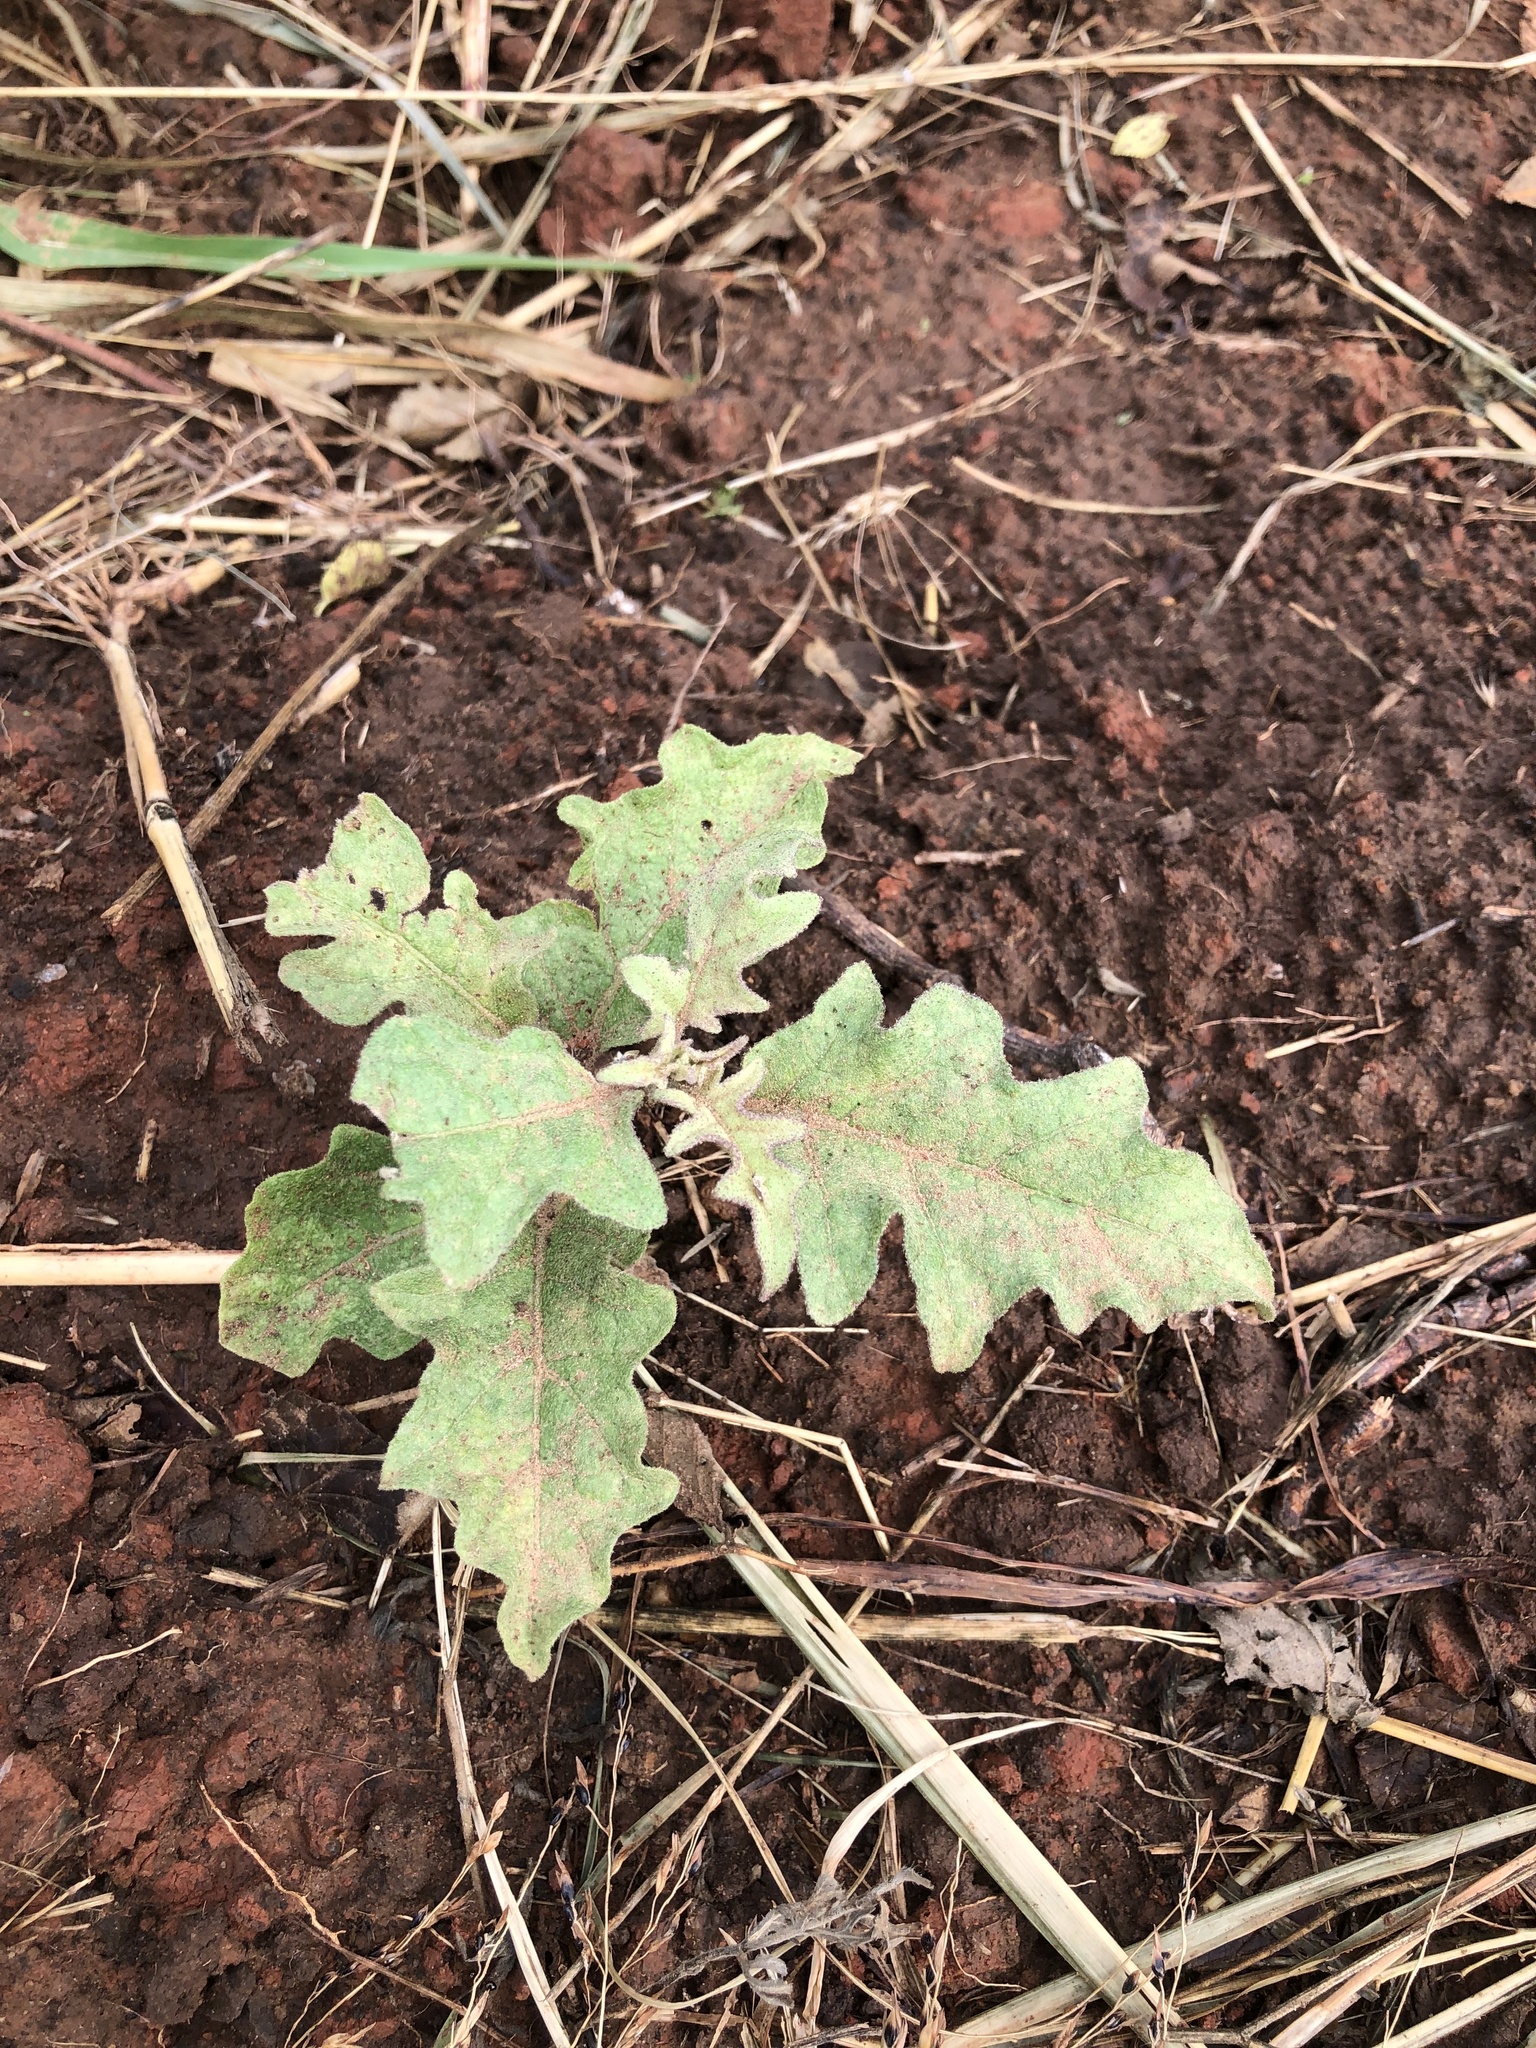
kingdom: Plantae
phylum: Tracheophyta
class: Magnoliopsida
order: Solanales
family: Solanaceae
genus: Solanum
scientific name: Solanum dimidiatum
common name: Carolina horse-nettle
